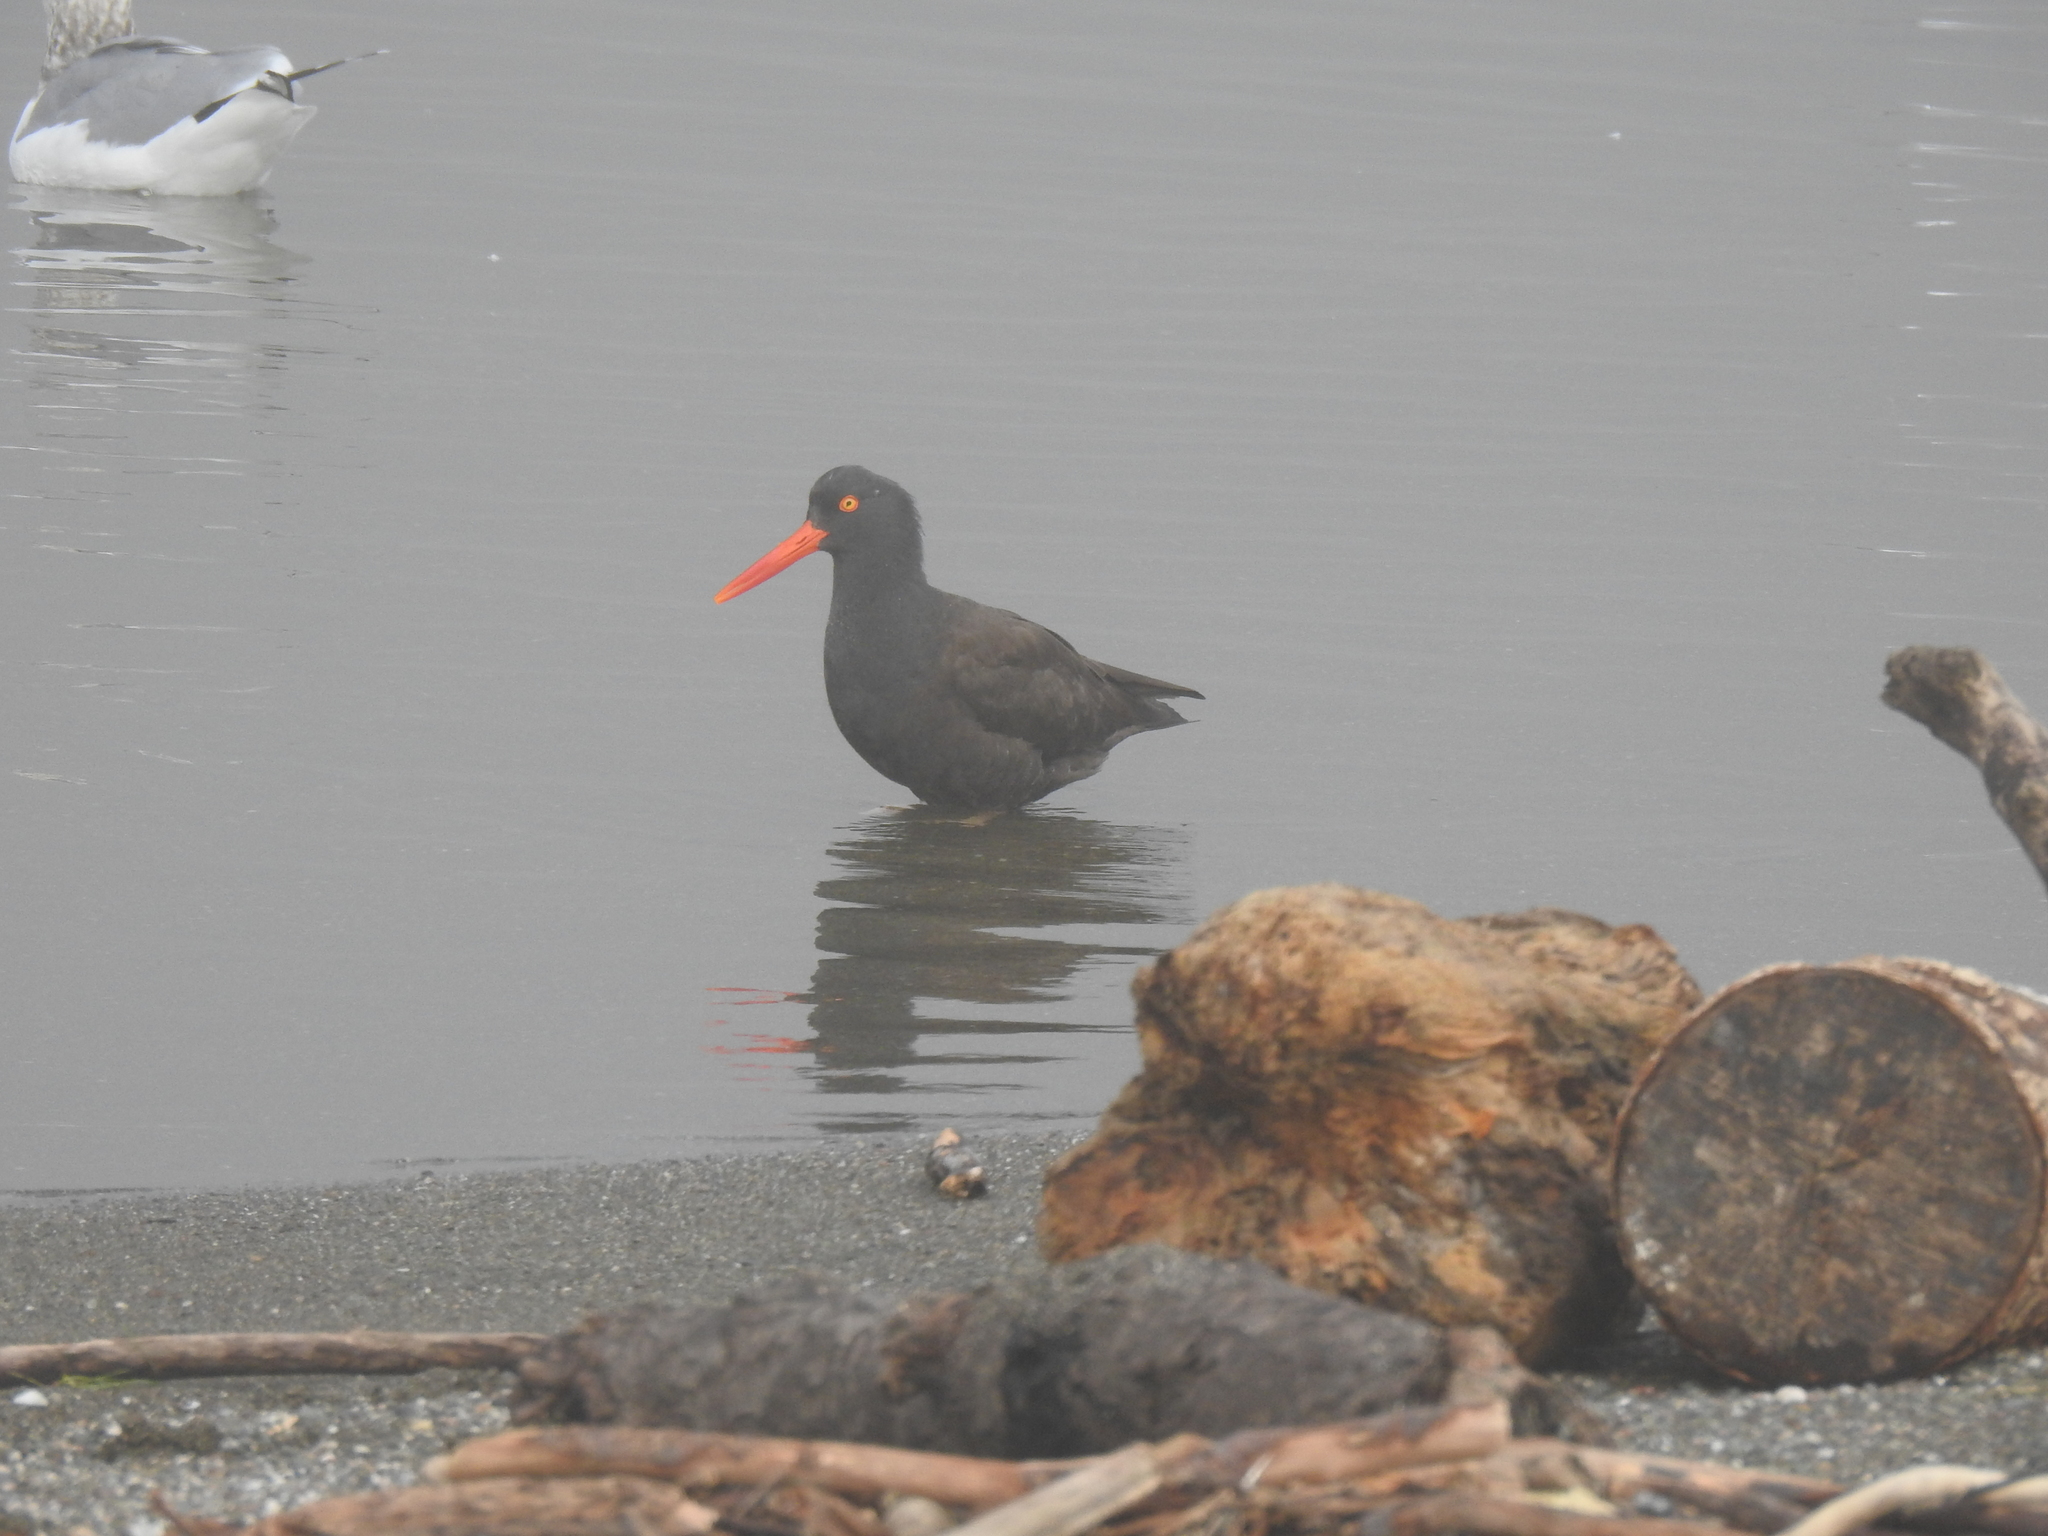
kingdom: Animalia
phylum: Chordata
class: Aves
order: Charadriiformes
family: Haematopodidae
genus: Haematopus
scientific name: Haematopus bachmani
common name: Black oystercatcher
